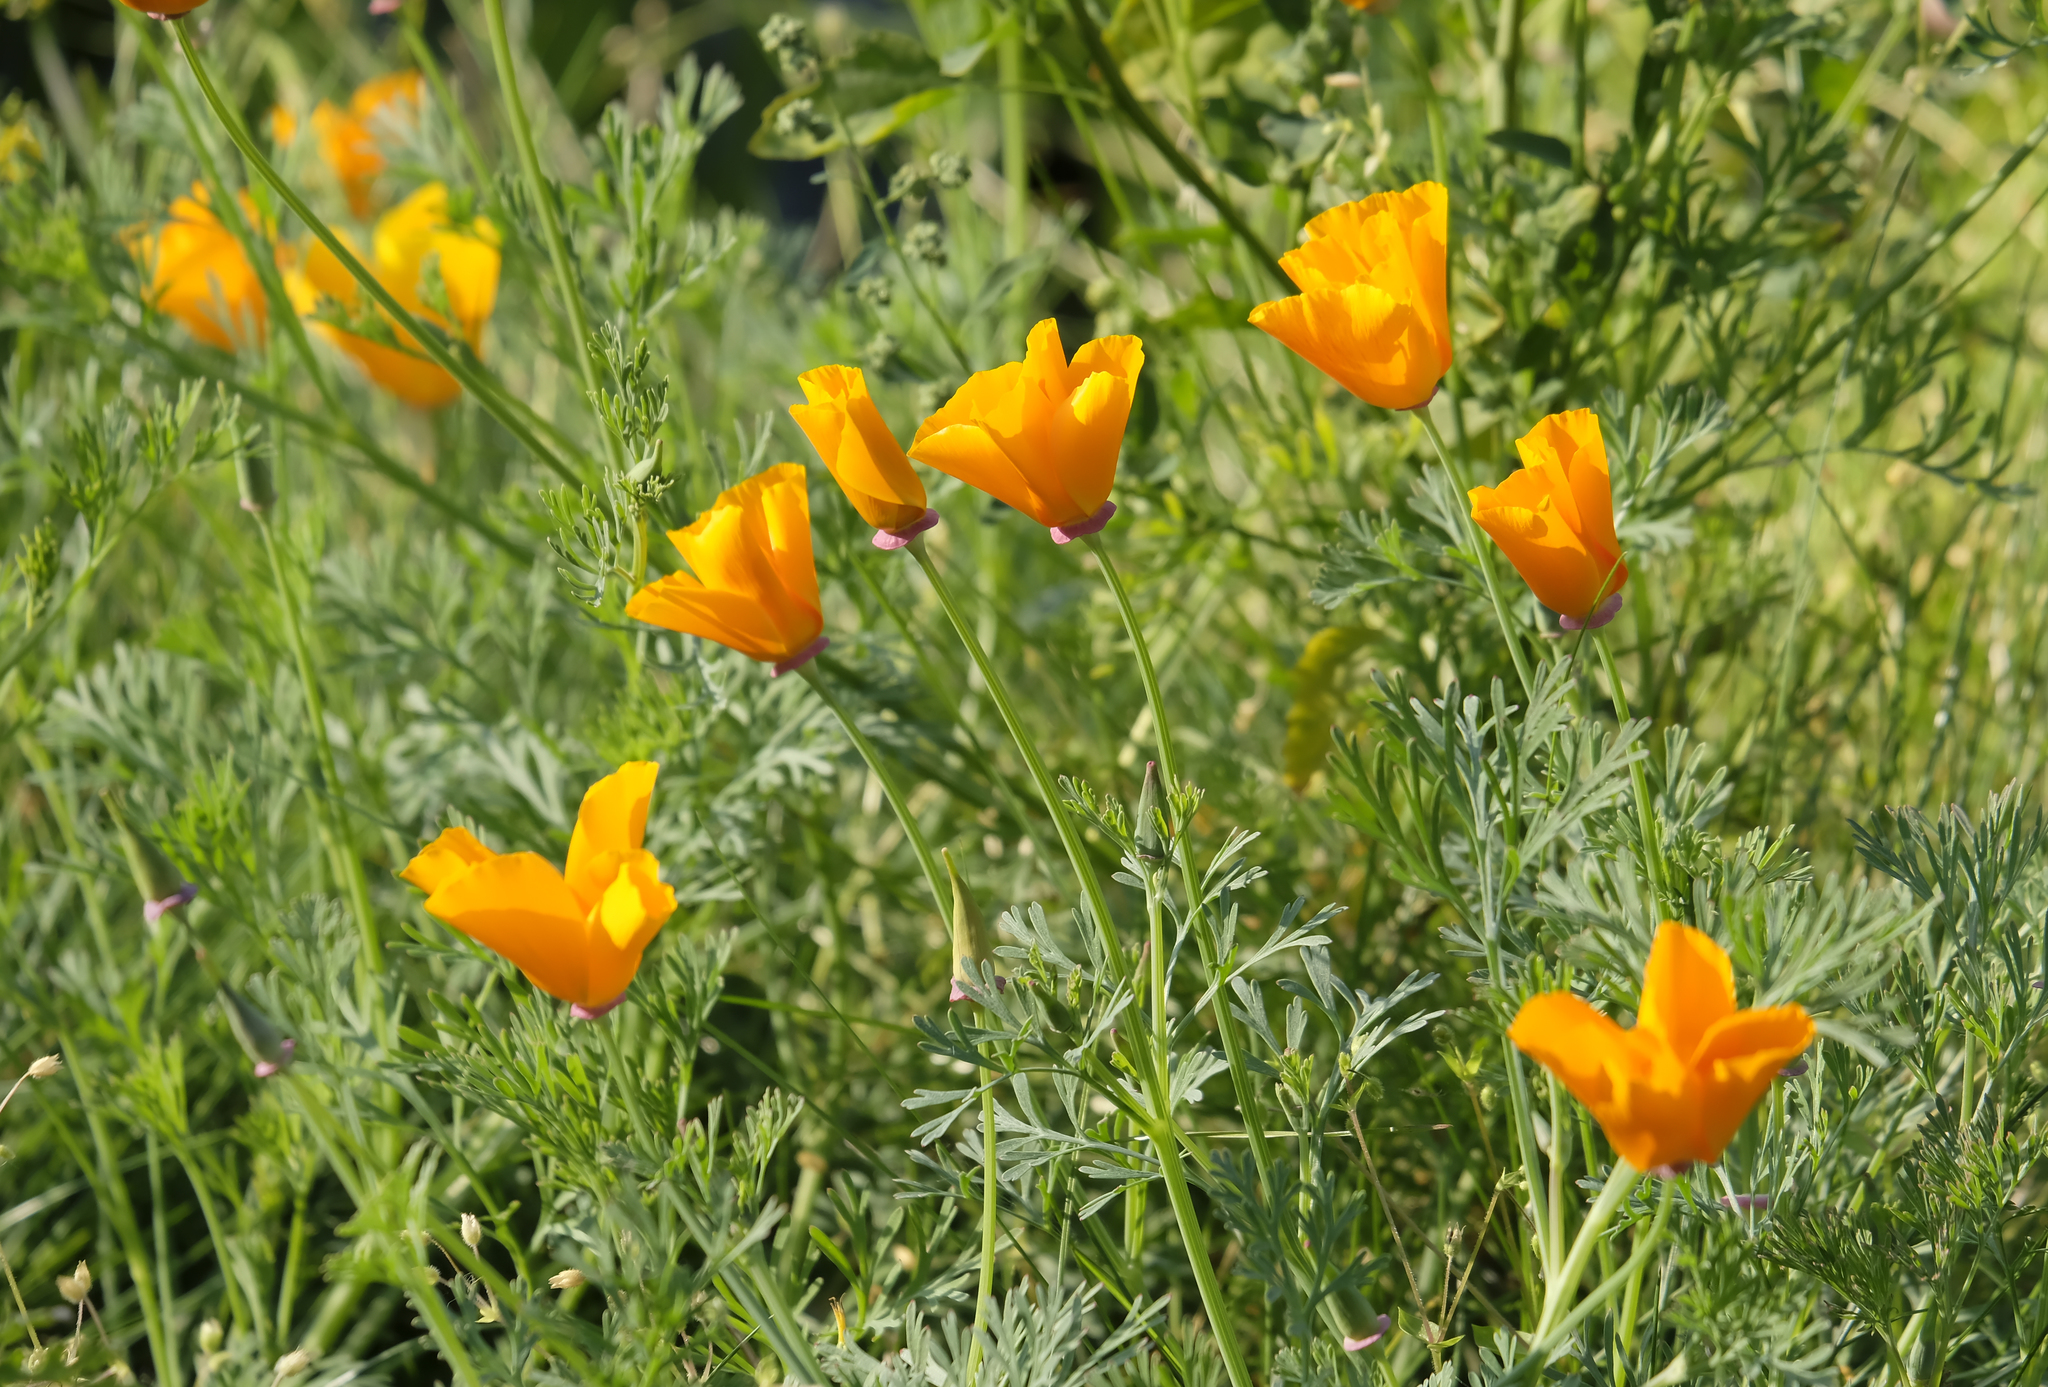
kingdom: Plantae
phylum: Tracheophyta
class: Magnoliopsida
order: Ranunculales
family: Papaveraceae
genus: Eschscholzia
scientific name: Eschscholzia californica
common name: California poppy
